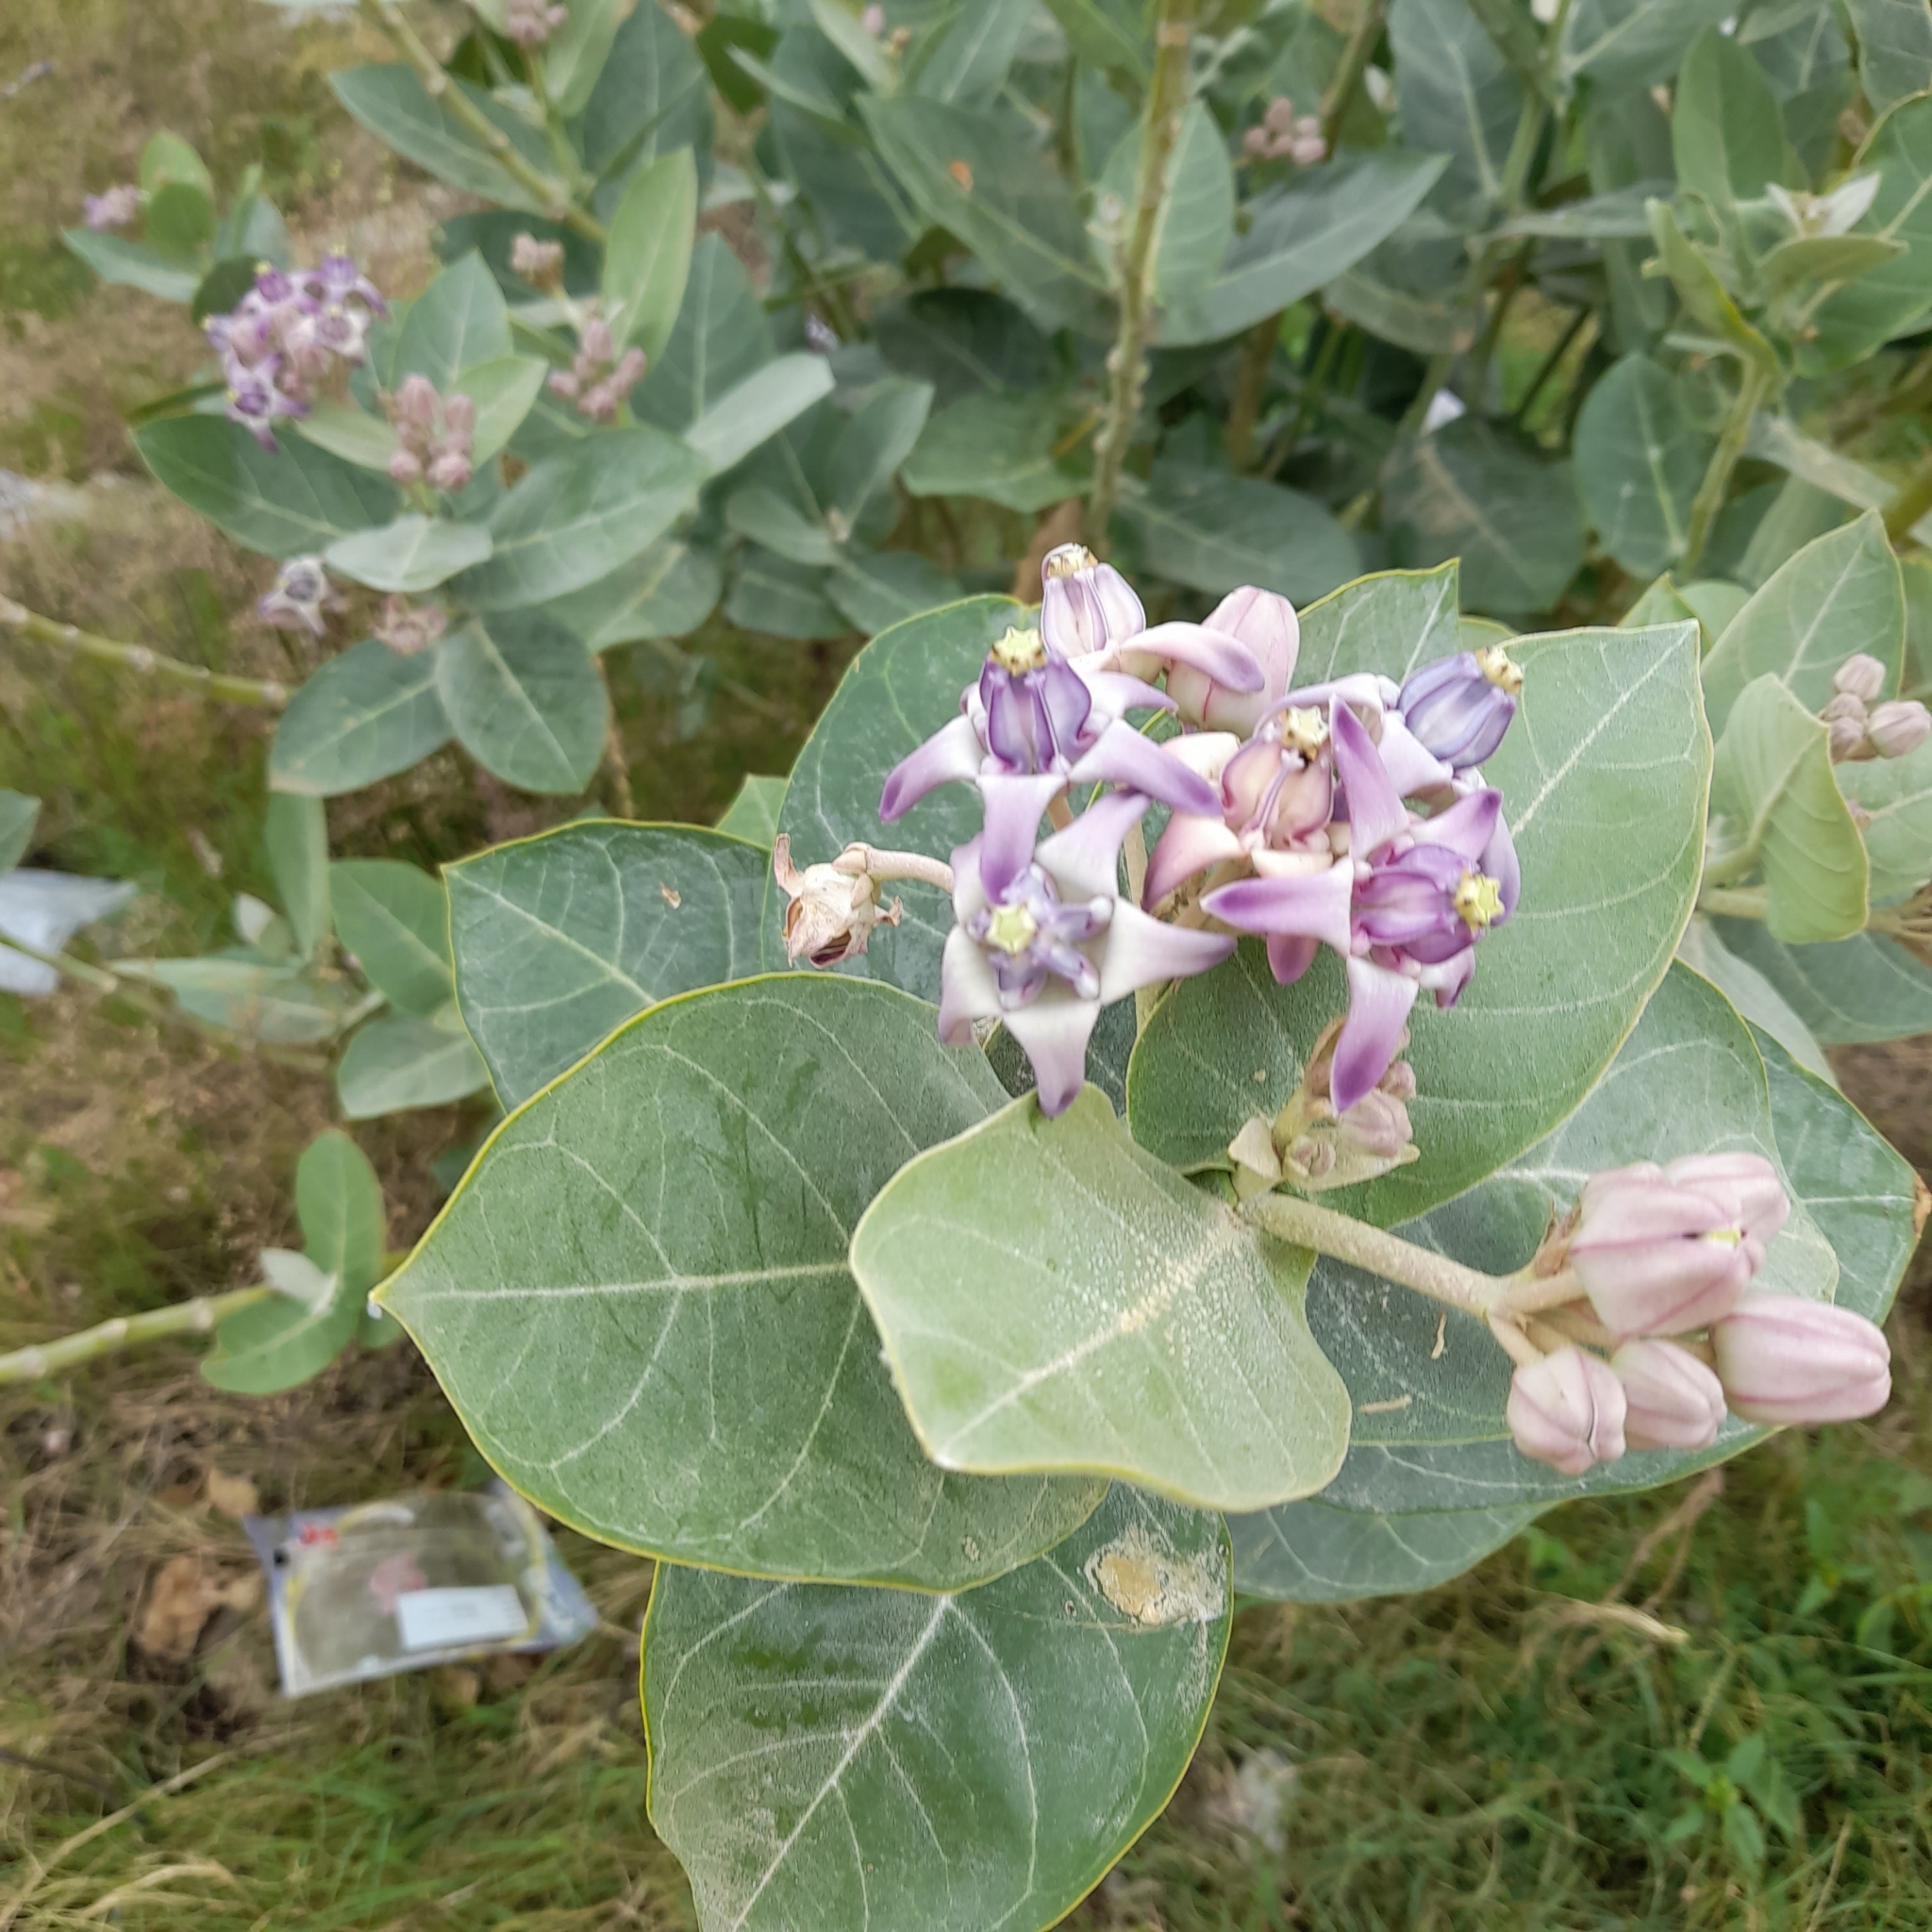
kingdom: Plantae
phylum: Tracheophyta
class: Magnoliopsida
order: Gentianales
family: Apocynaceae
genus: Calotropis
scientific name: Calotropis gigantea
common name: Crown flower
